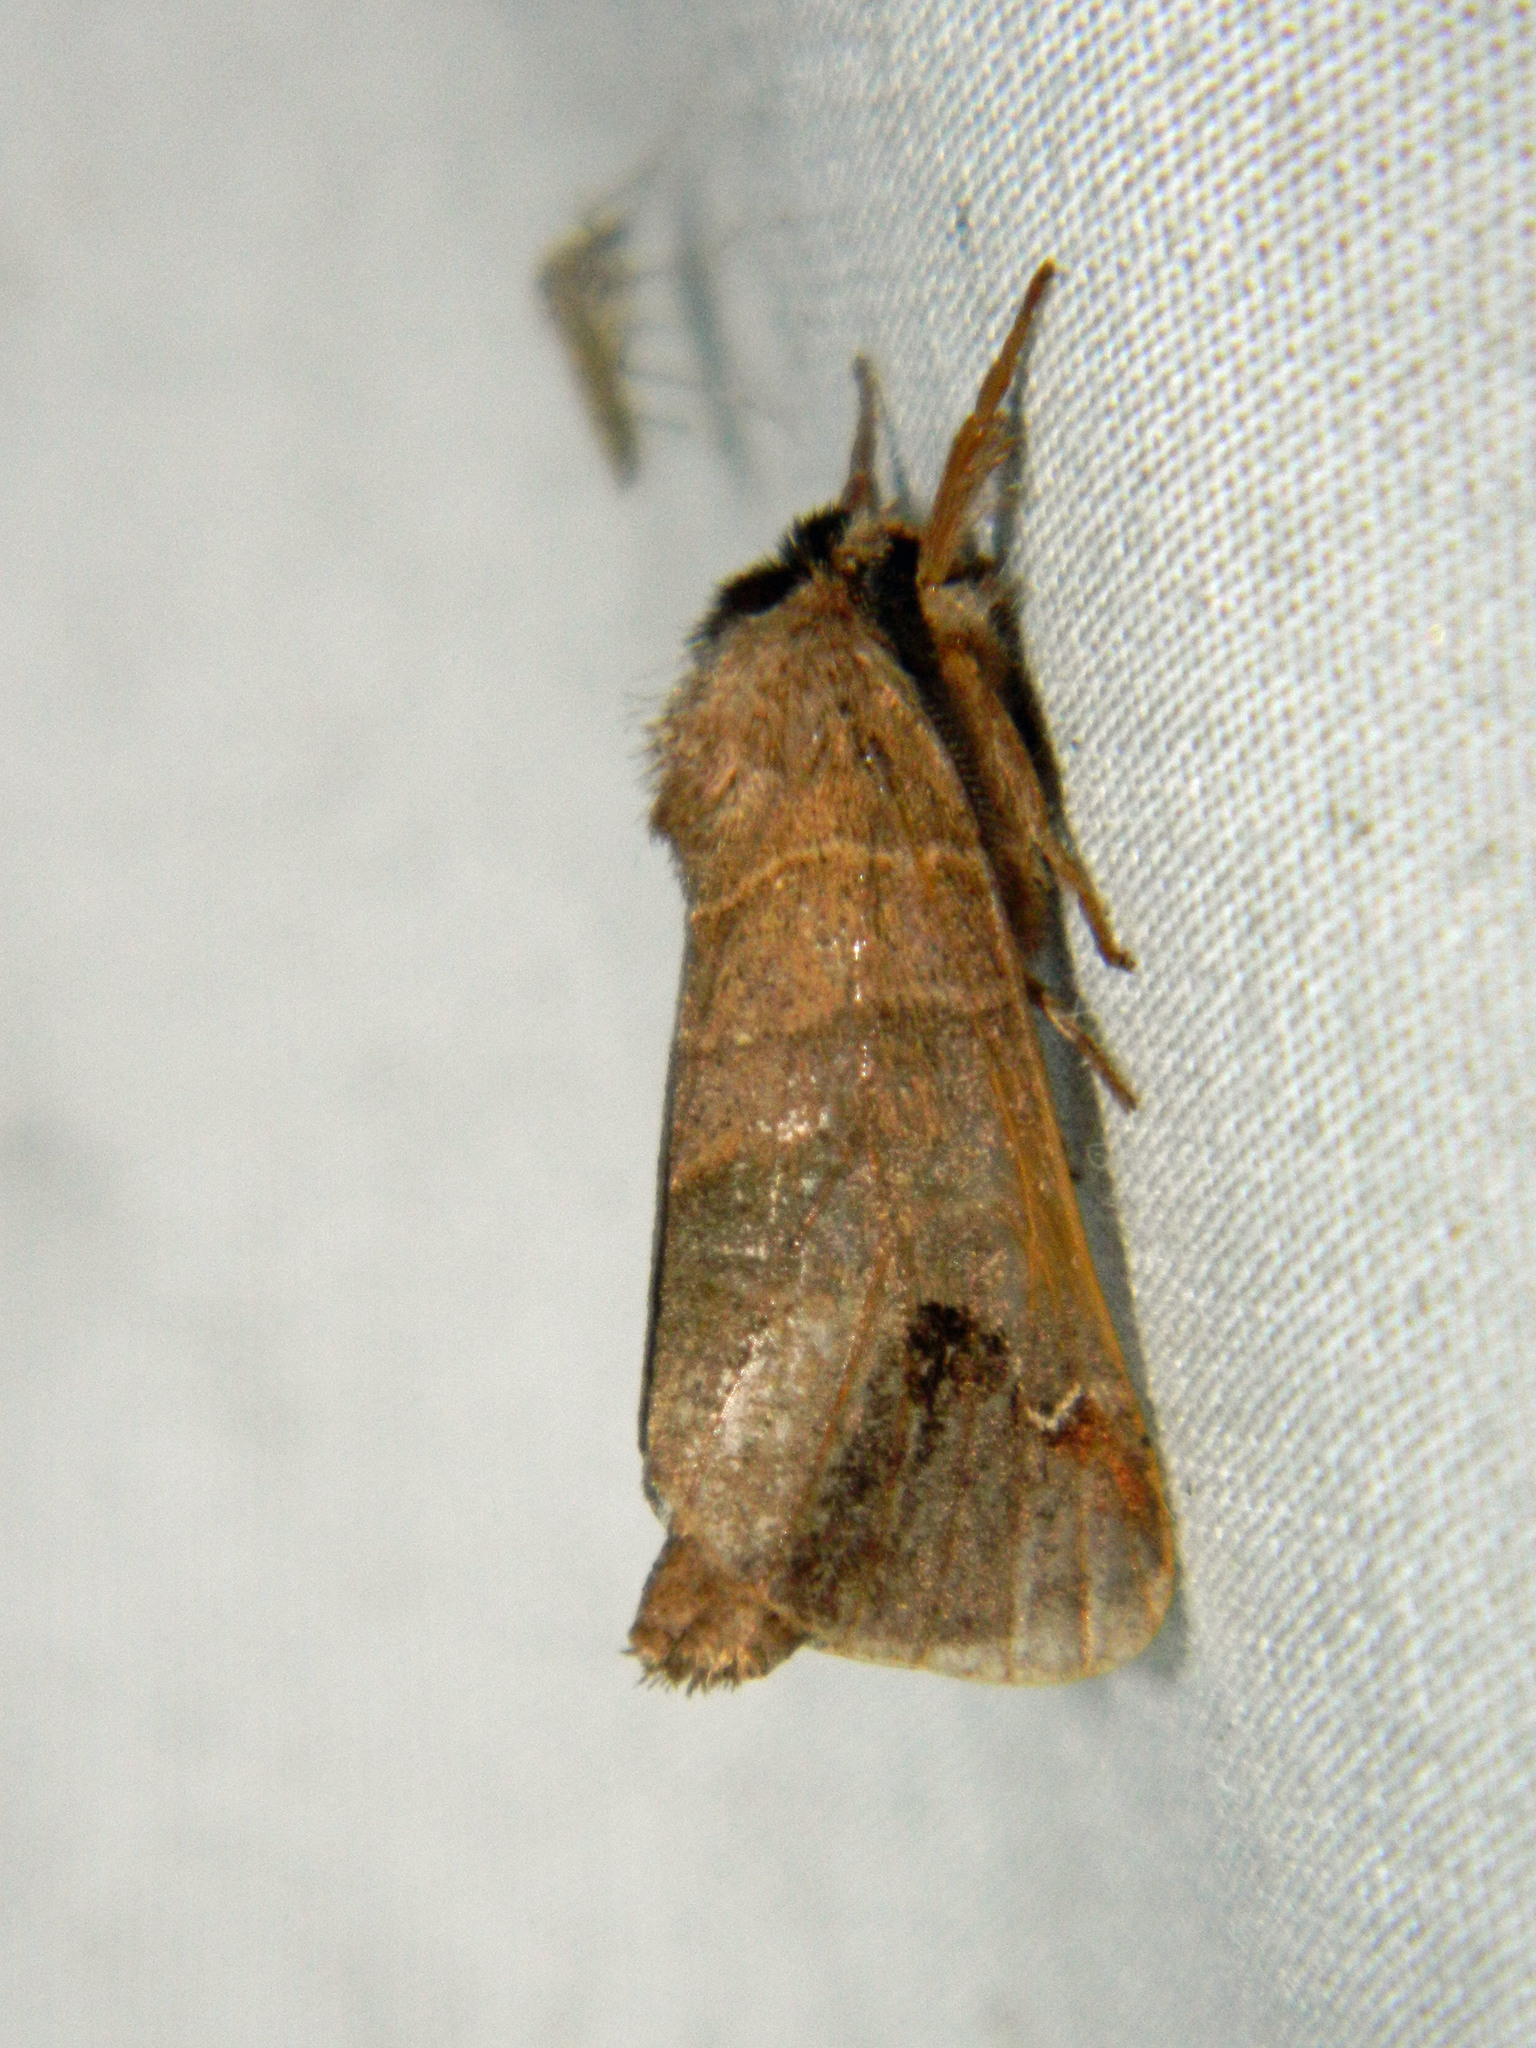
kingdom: Animalia
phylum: Arthropoda
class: Insecta
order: Lepidoptera
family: Notodontidae
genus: Clostera
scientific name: Clostera albosigma
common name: Sigmoid prominent
